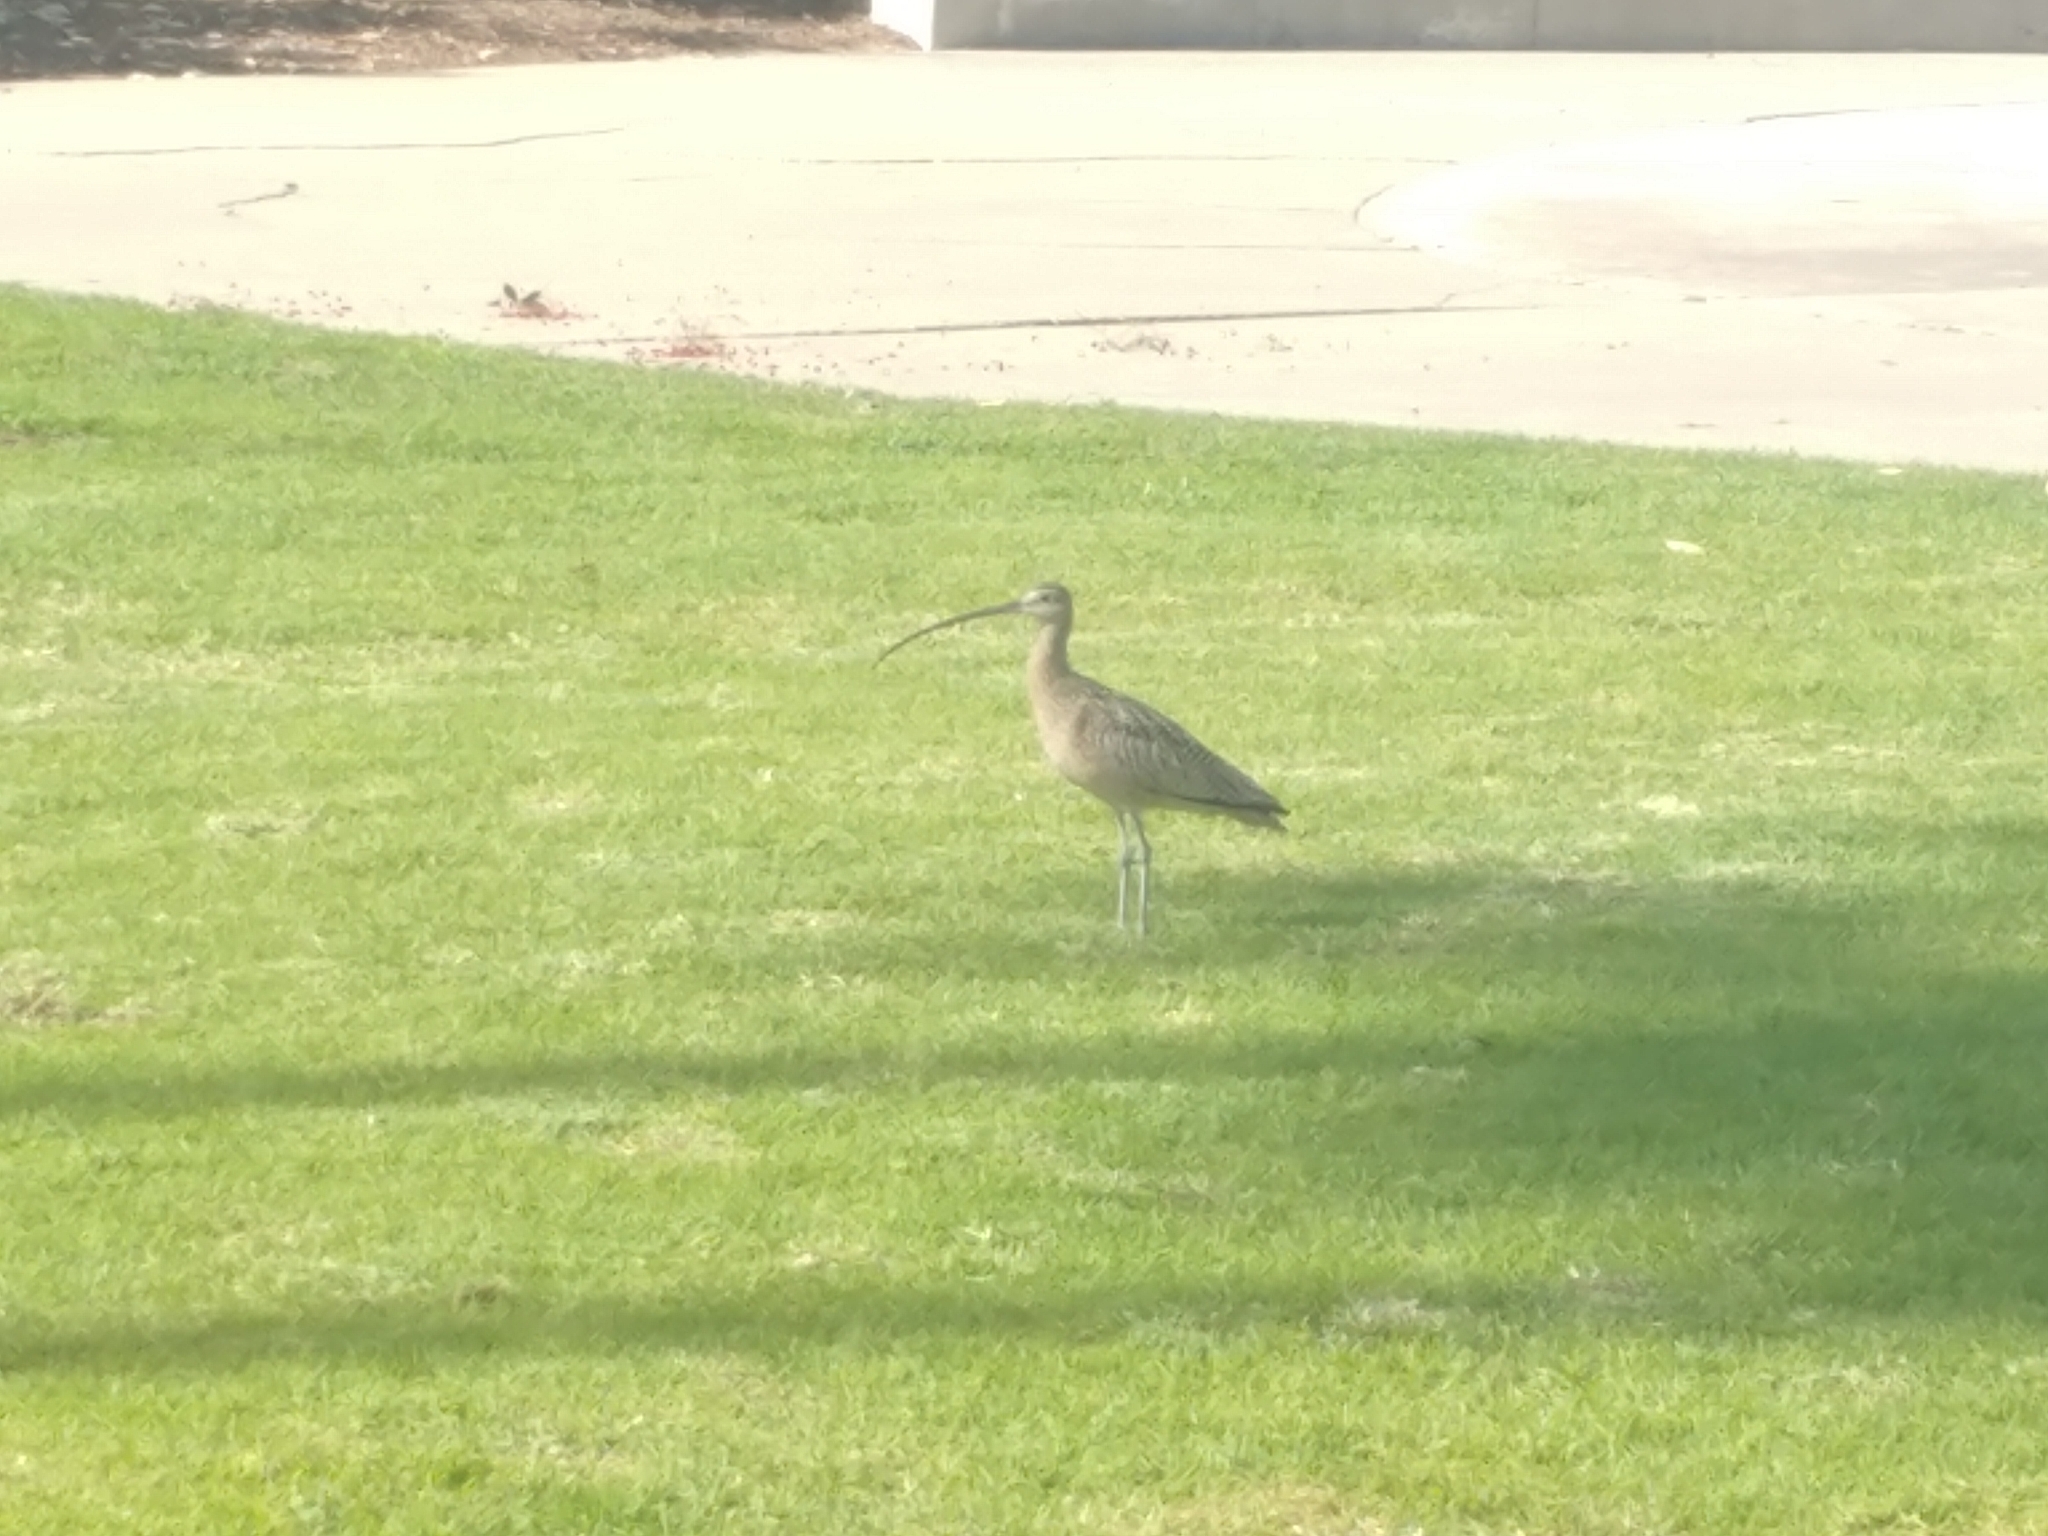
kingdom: Animalia
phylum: Chordata
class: Aves
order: Charadriiformes
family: Scolopacidae
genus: Numenius
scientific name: Numenius americanus
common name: Long-billed curlew
